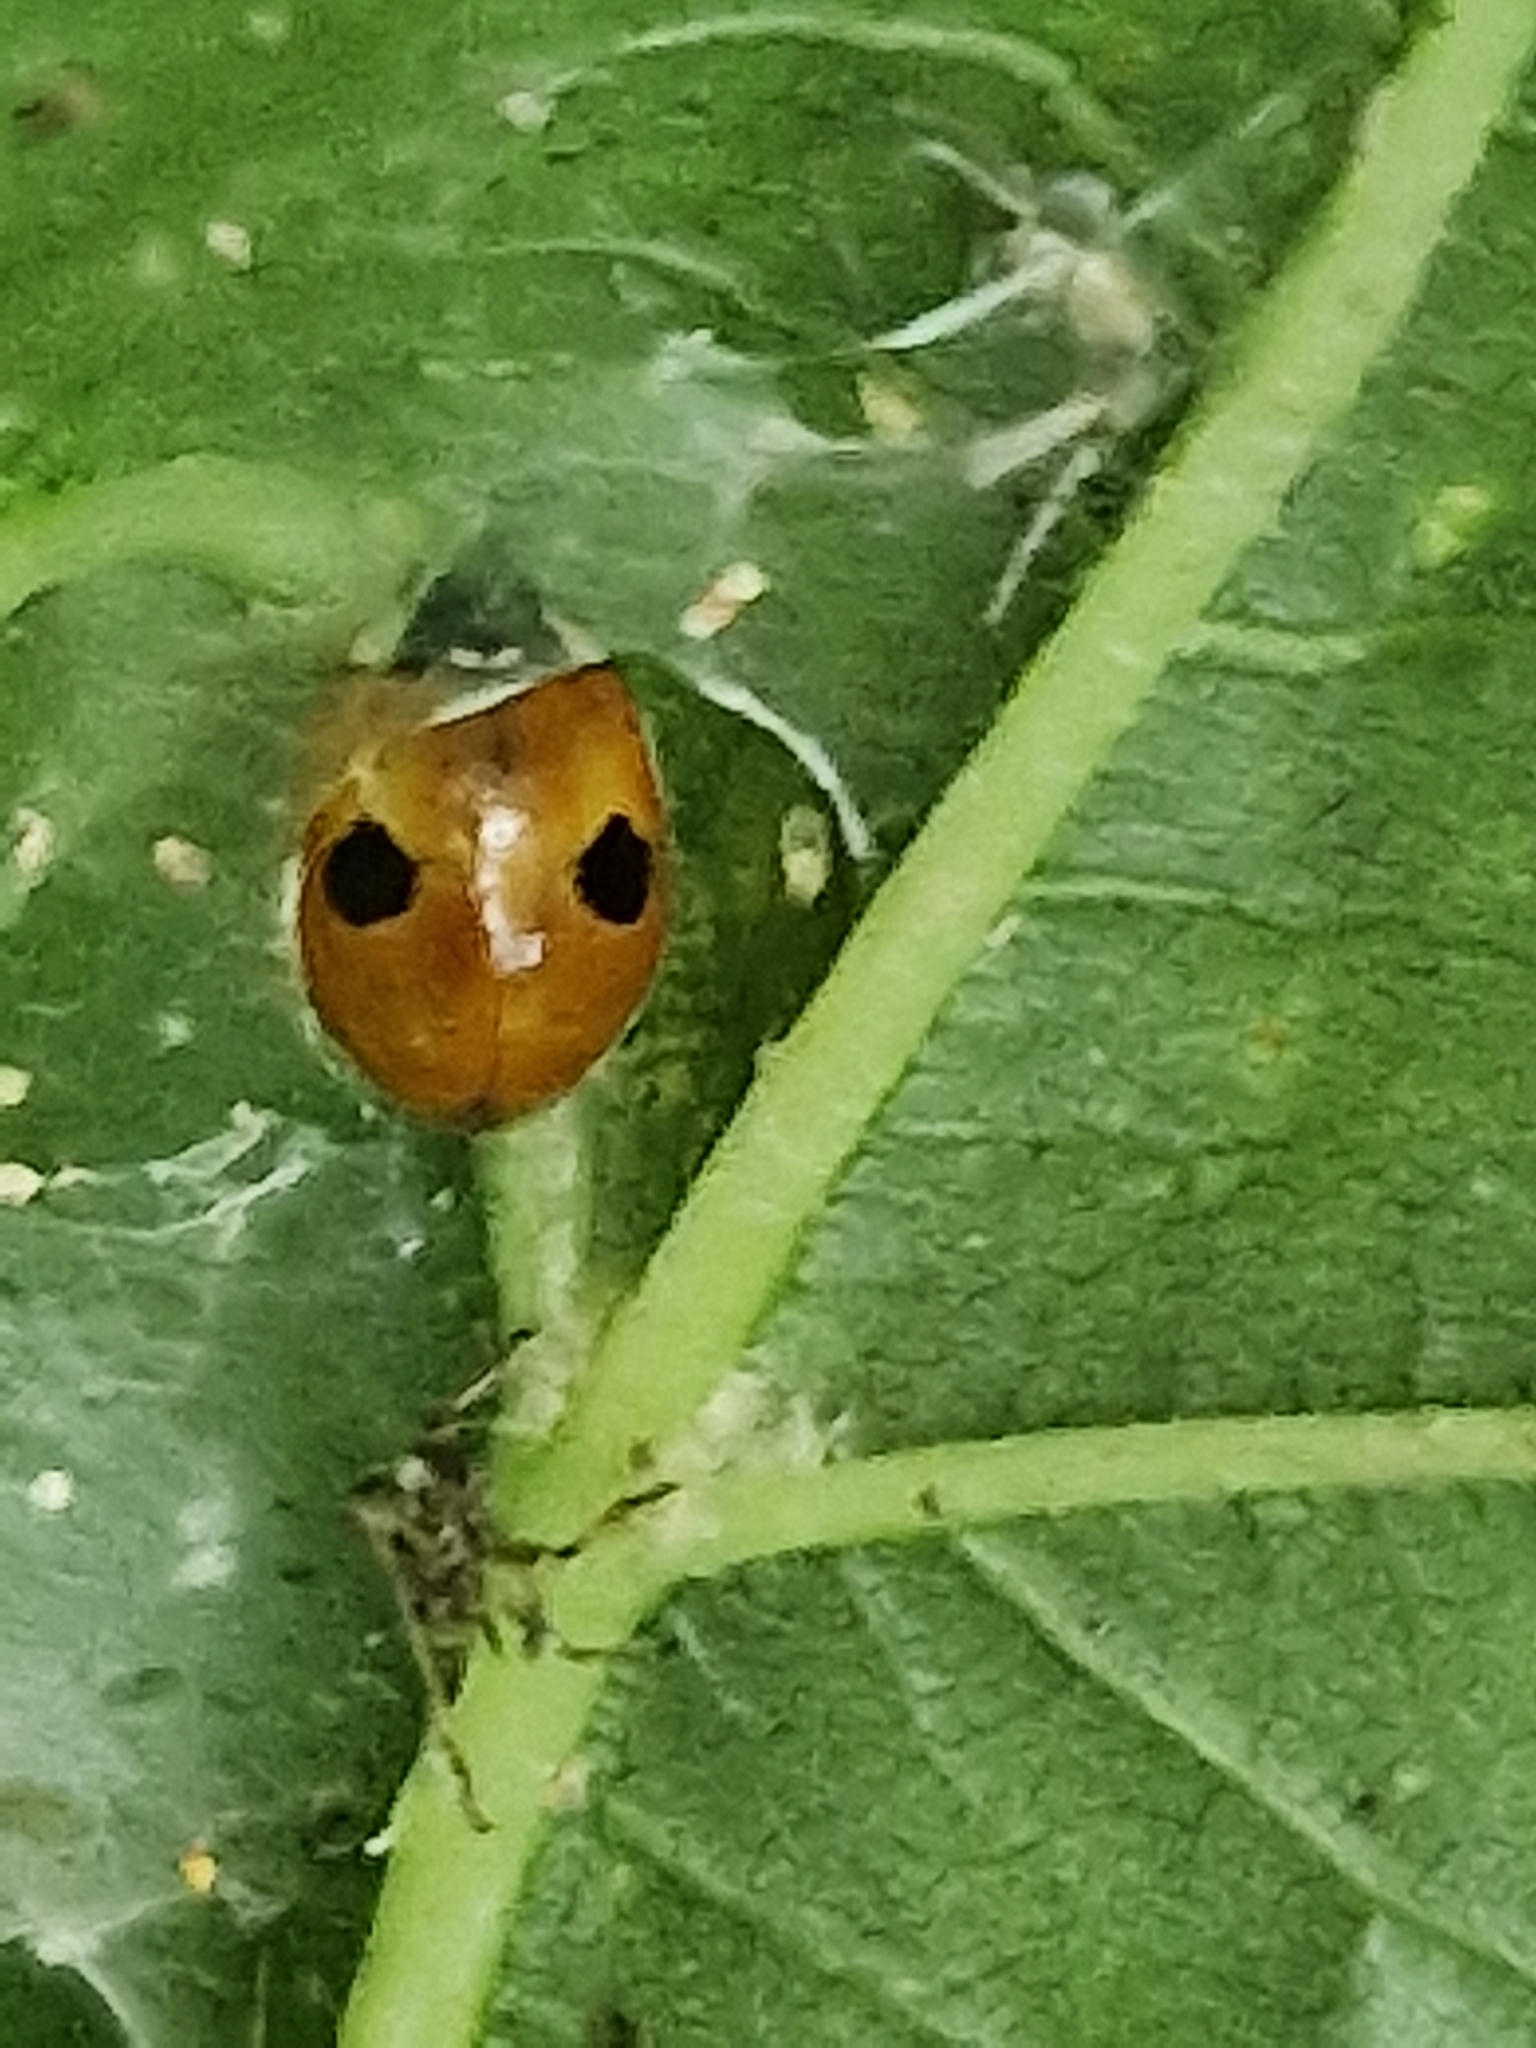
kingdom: Animalia
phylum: Arthropoda
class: Insecta
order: Coleoptera
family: Coccinellidae
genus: Adalia
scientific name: Adalia bipunctata
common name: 2-spot ladybird
